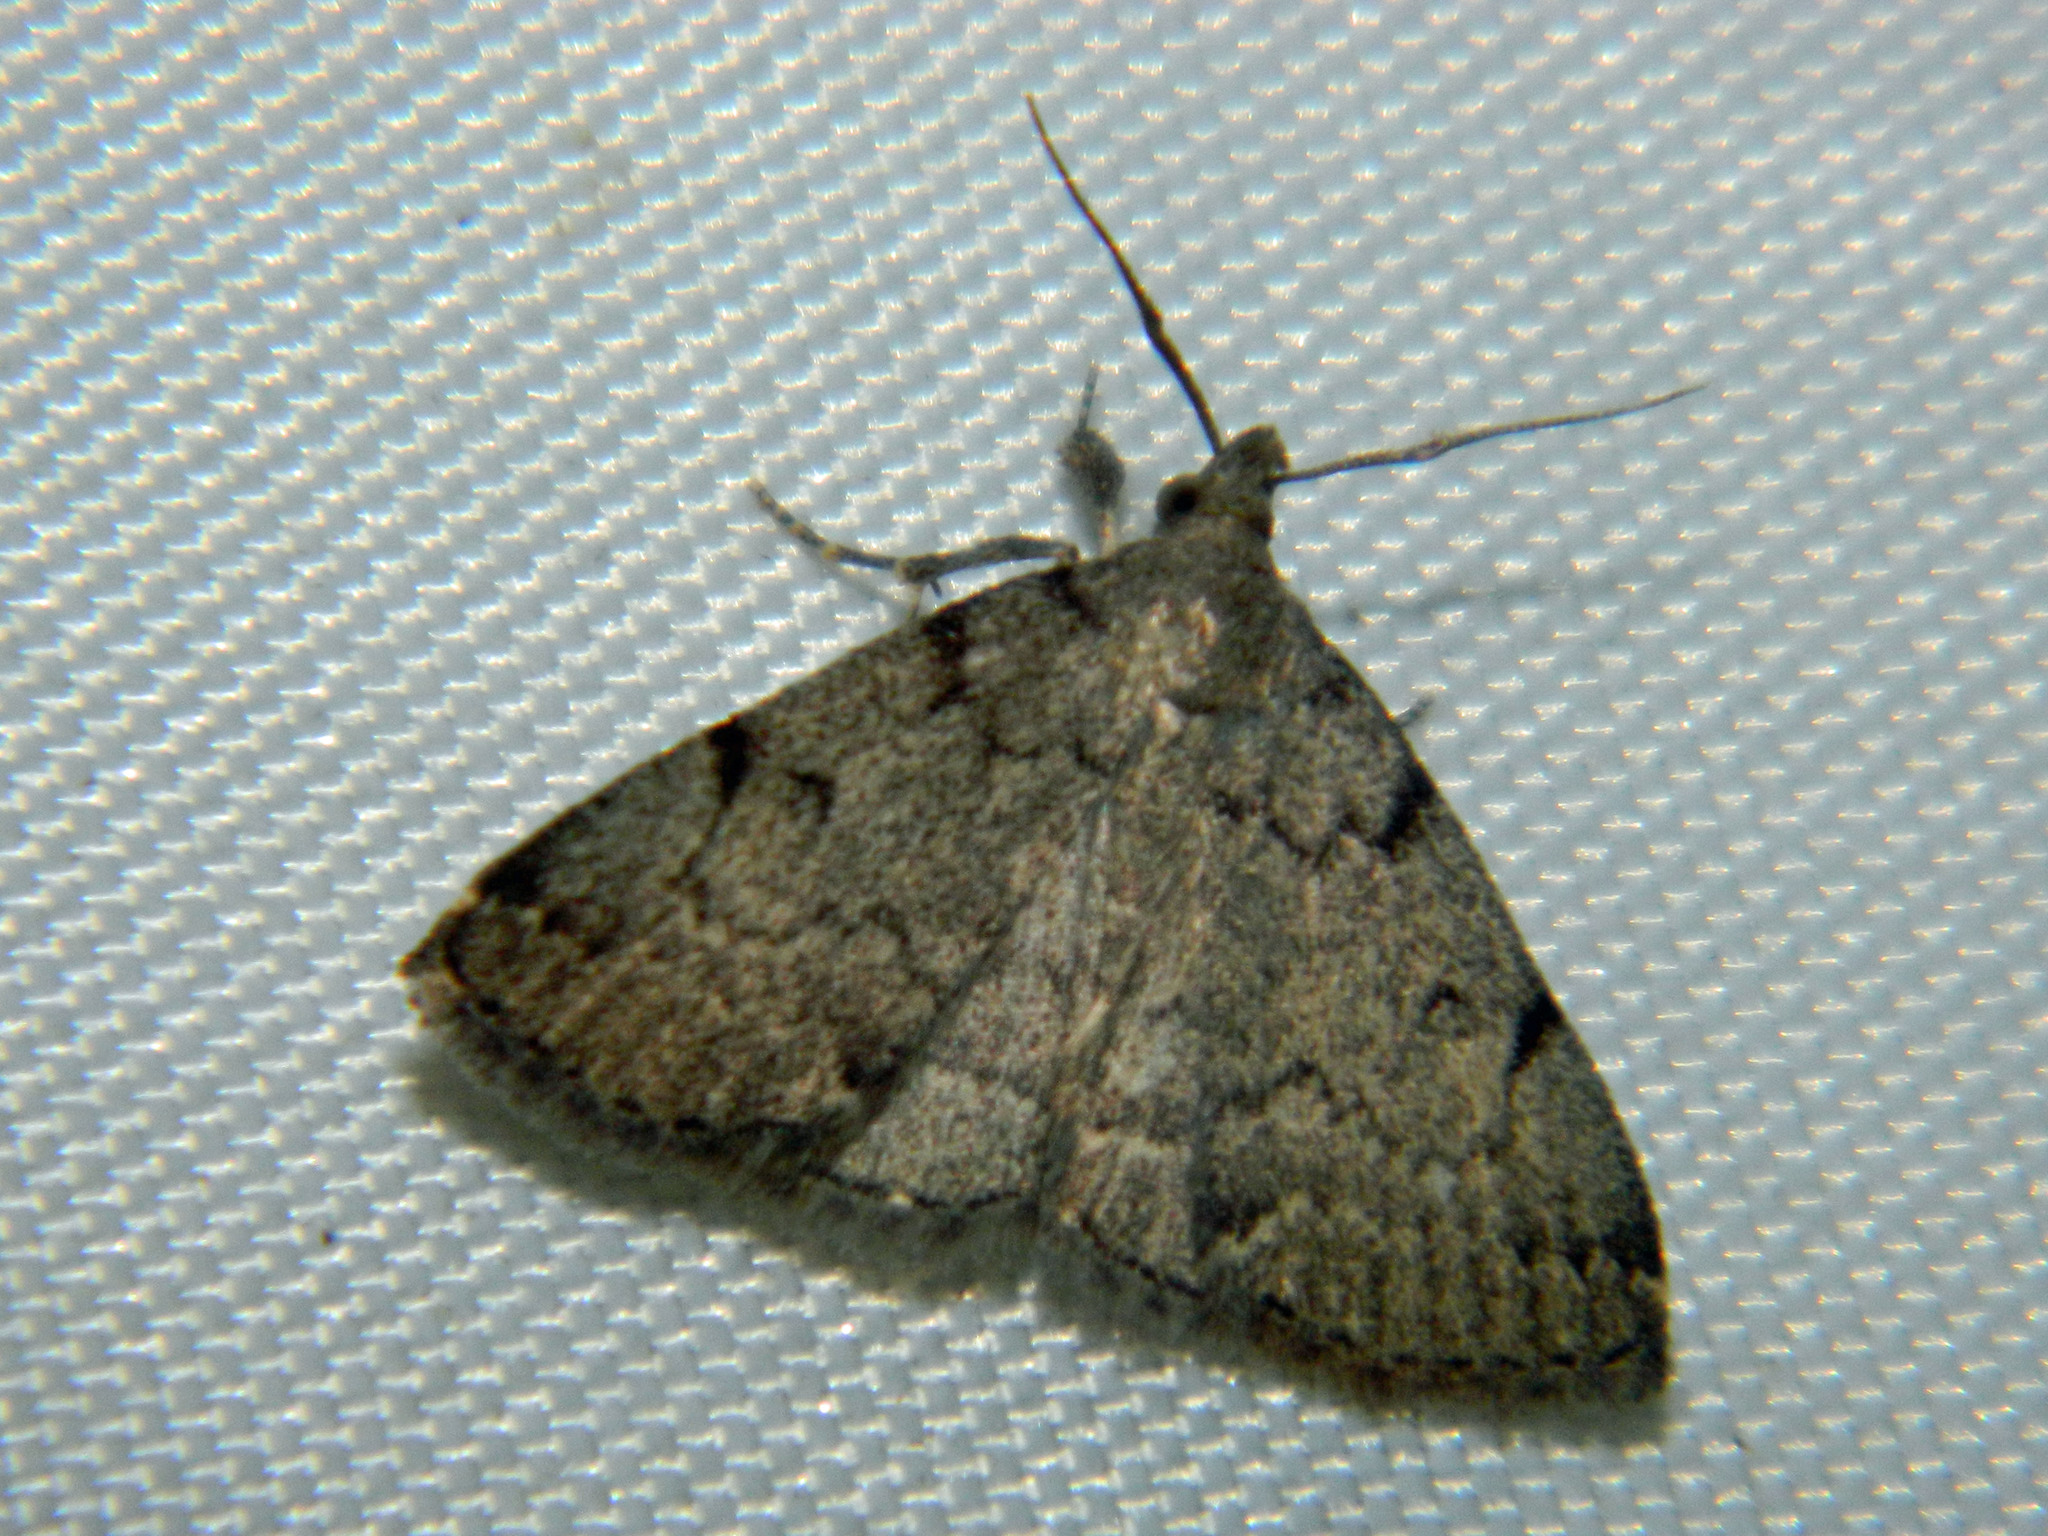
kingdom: Animalia
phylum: Arthropoda
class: Insecta
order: Lepidoptera
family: Erebidae
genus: Zanclognatha
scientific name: Zanclognatha theralis
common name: Flagged fan-foot
